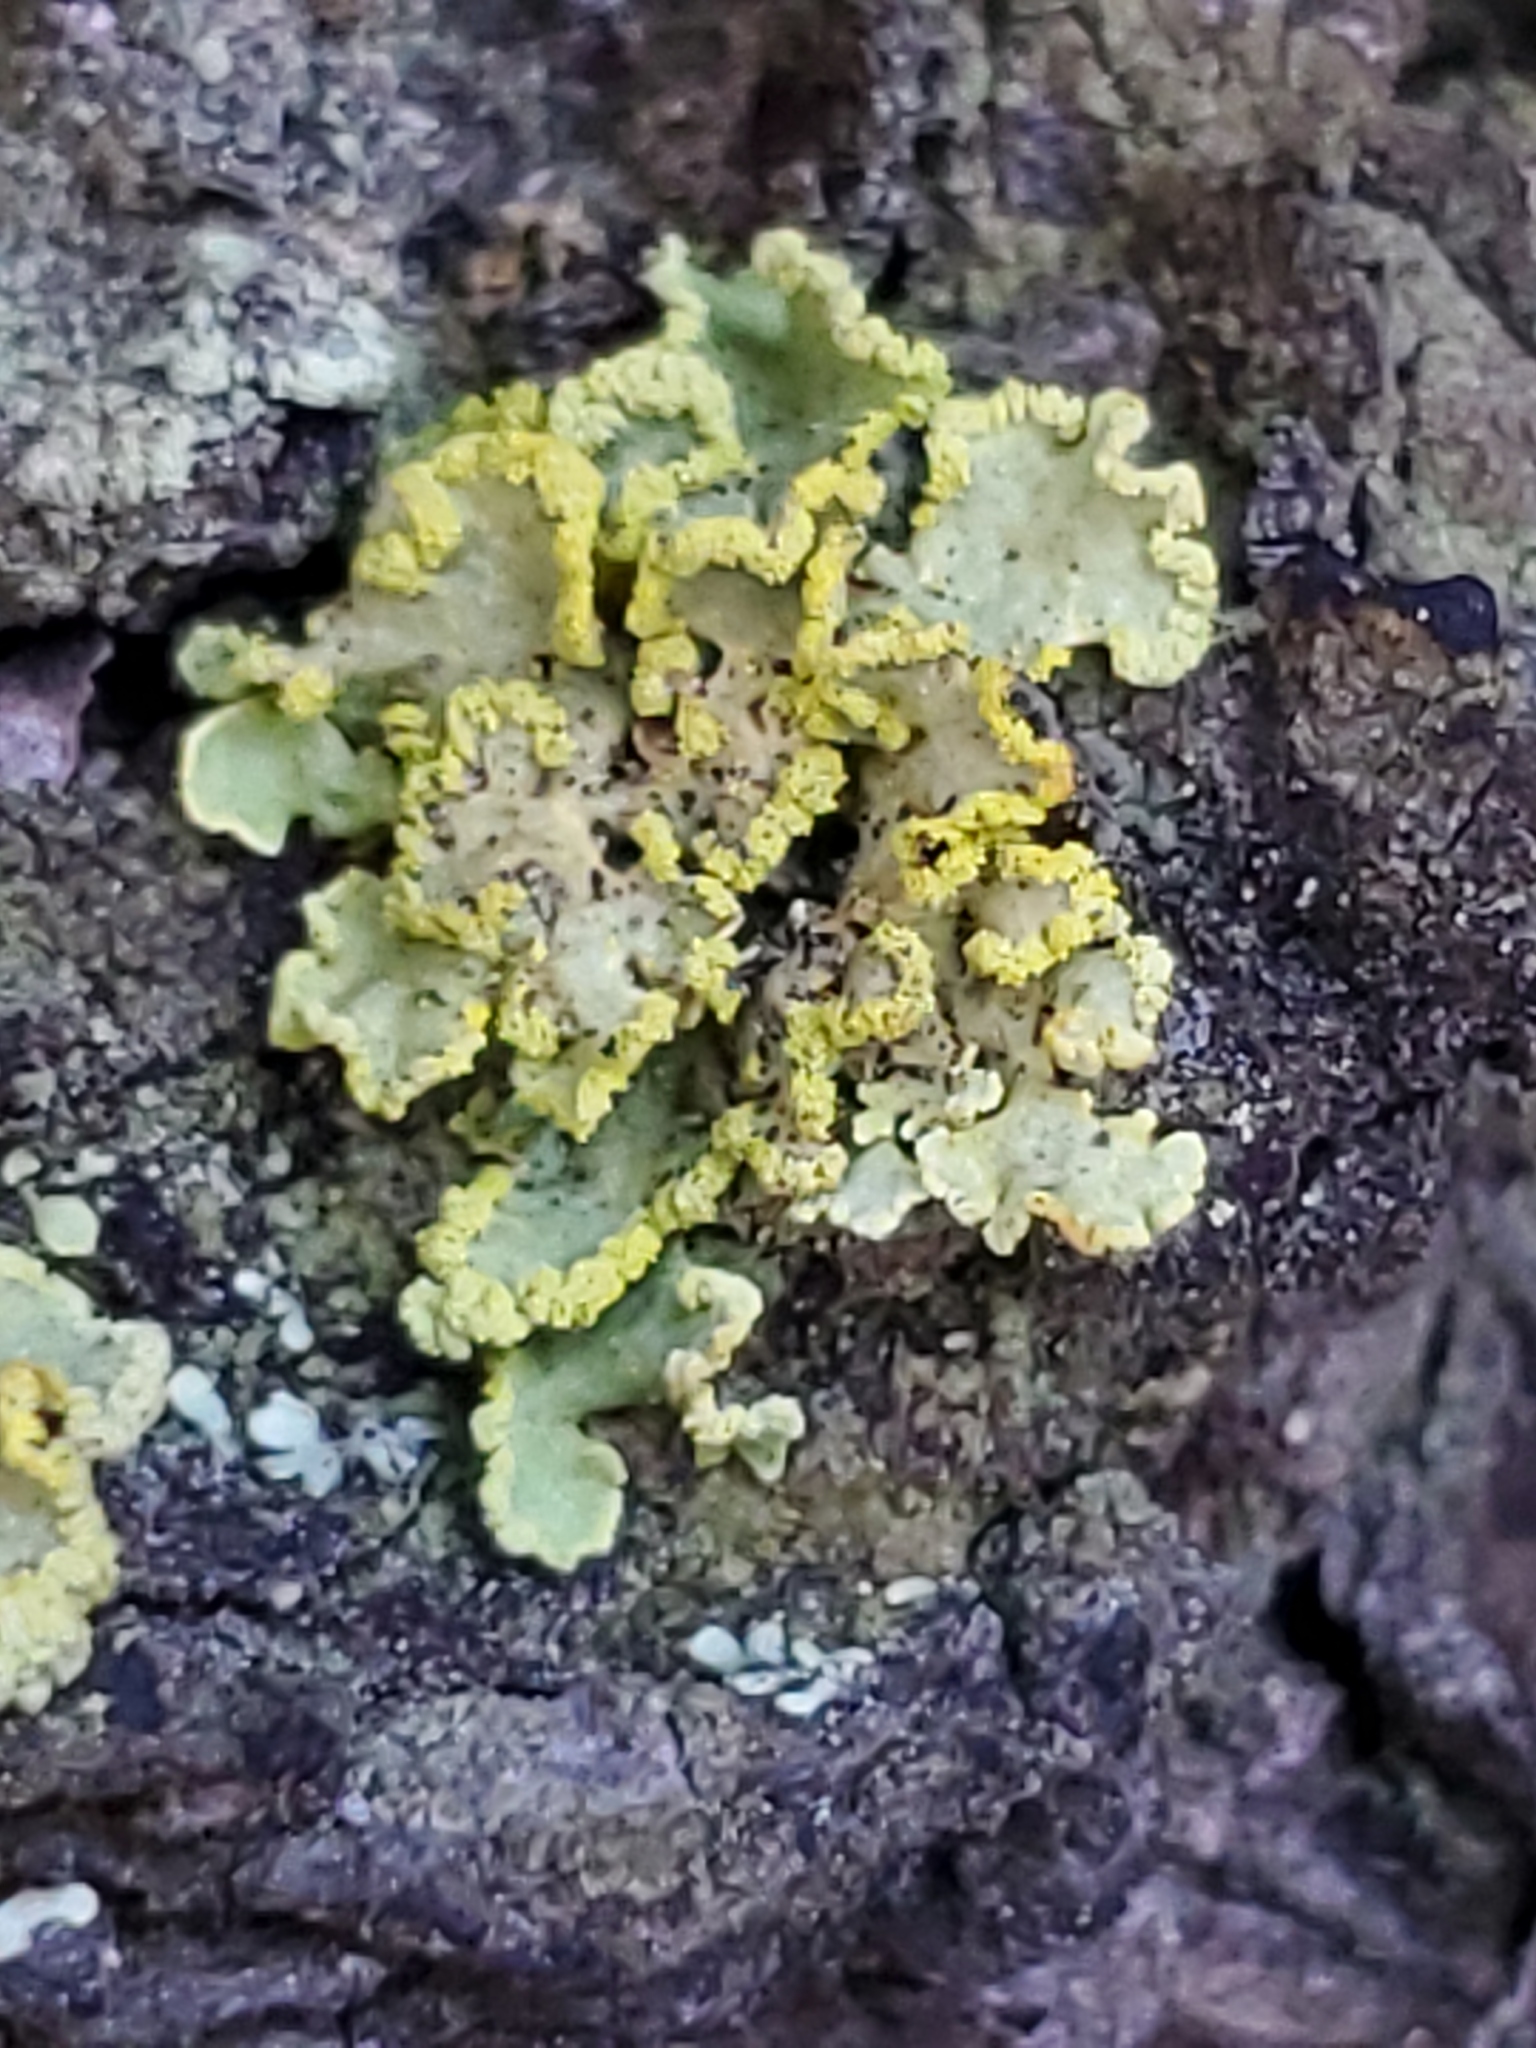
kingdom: Fungi
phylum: Ascomycota
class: Lecanoromycetes
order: Lecanorales
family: Parmeliaceae
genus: Vulpicida
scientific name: Vulpicida pinastri
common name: Powdered sunshine lichen
